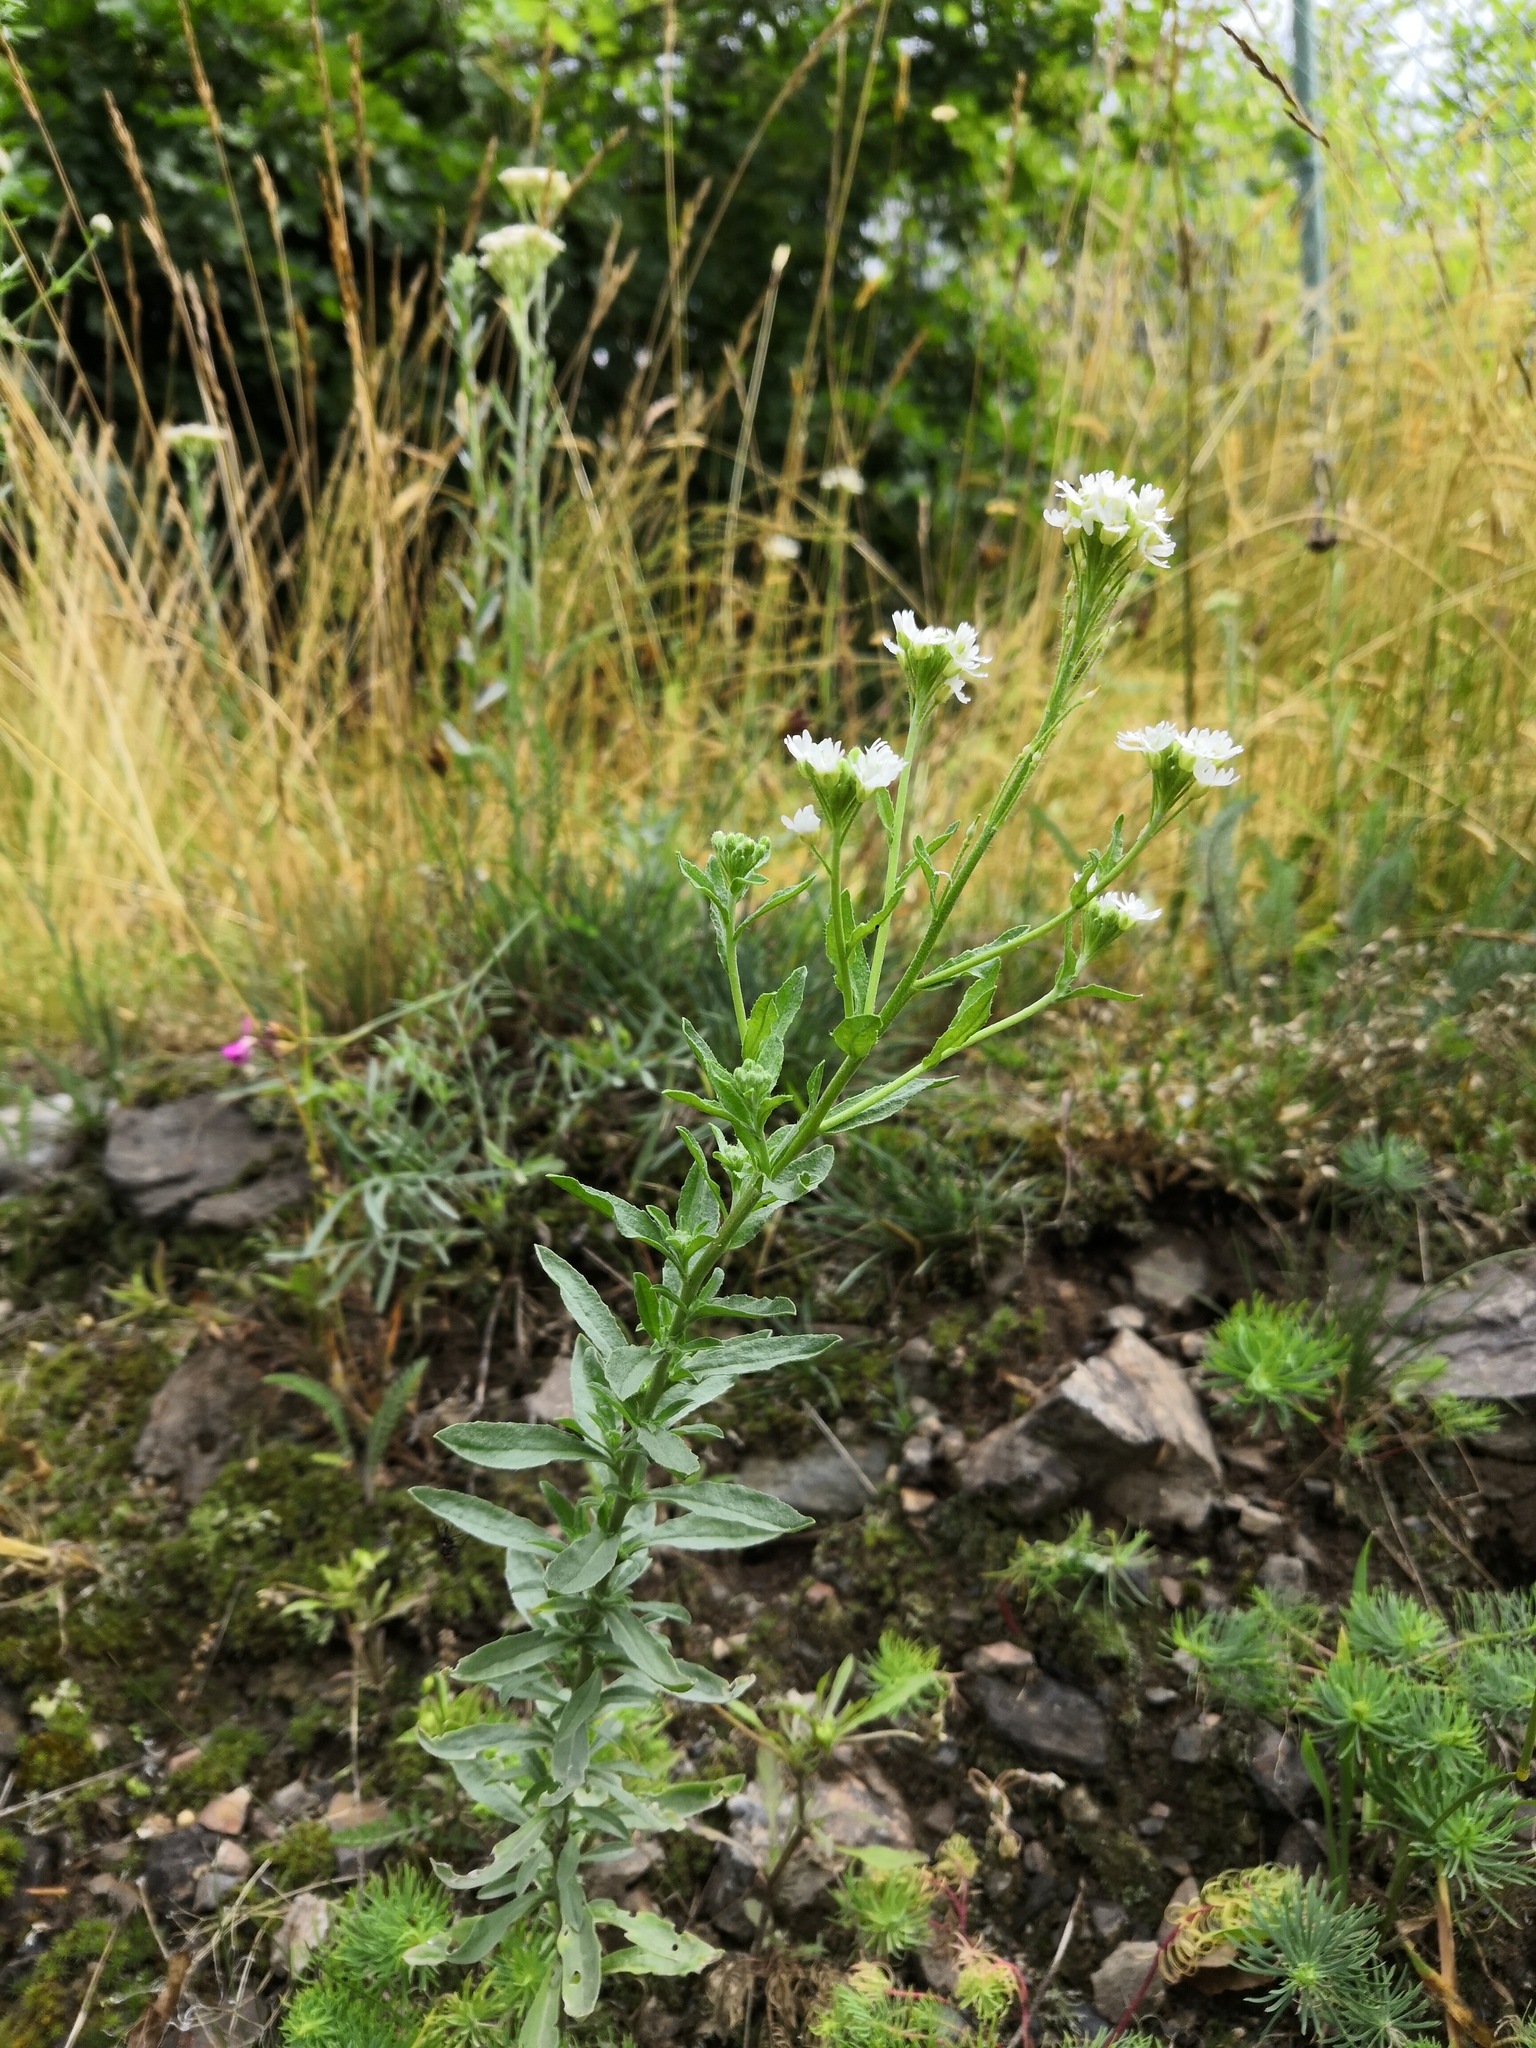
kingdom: Plantae
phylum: Tracheophyta
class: Magnoliopsida
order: Brassicales
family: Brassicaceae
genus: Berteroa
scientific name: Berteroa incana
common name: Hoary alison
